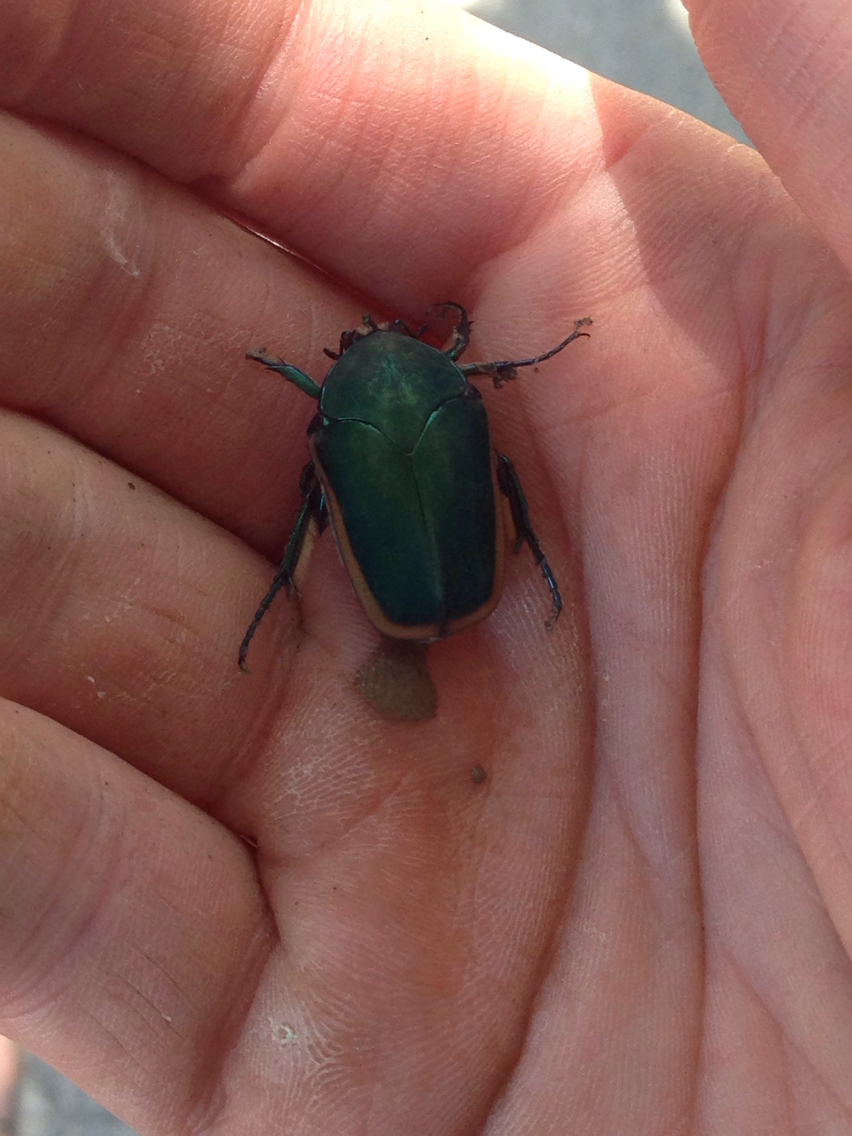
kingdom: Animalia
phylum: Arthropoda
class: Insecta
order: Coleoptera
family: Scarabaeidae
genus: Cotinis
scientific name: Cotinis mutabilis
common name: Figeater beetle
